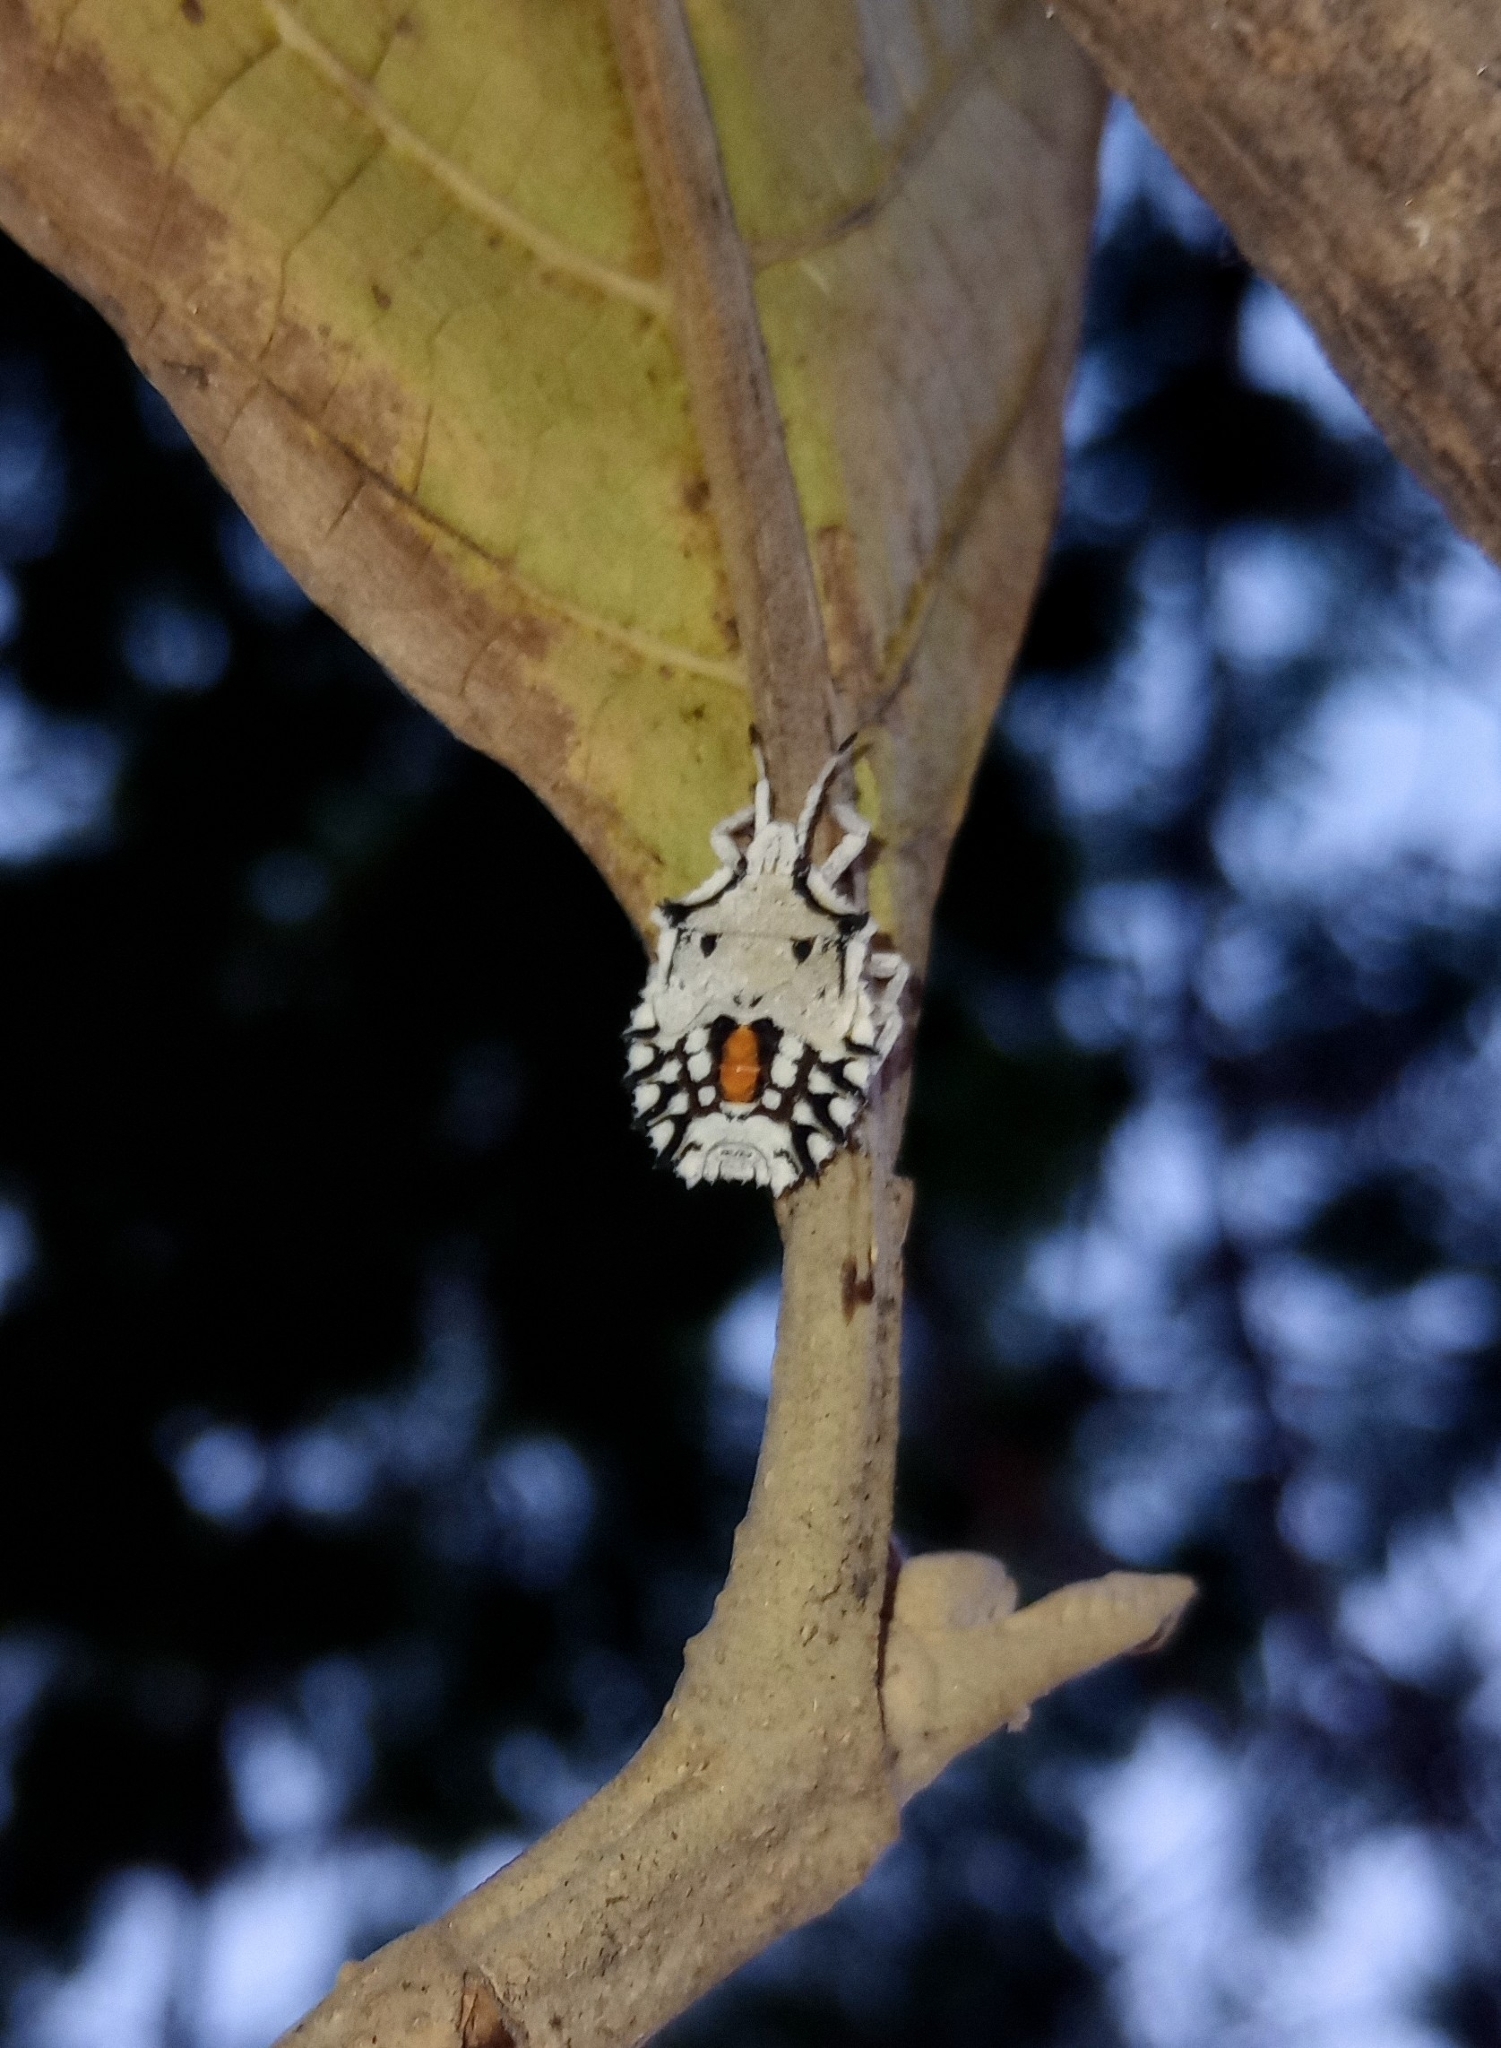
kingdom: Animalia
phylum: Arthropoda
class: Insecta
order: Hemiptera
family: Pentatomidae
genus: Degonetus
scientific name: Degonetus serratus
